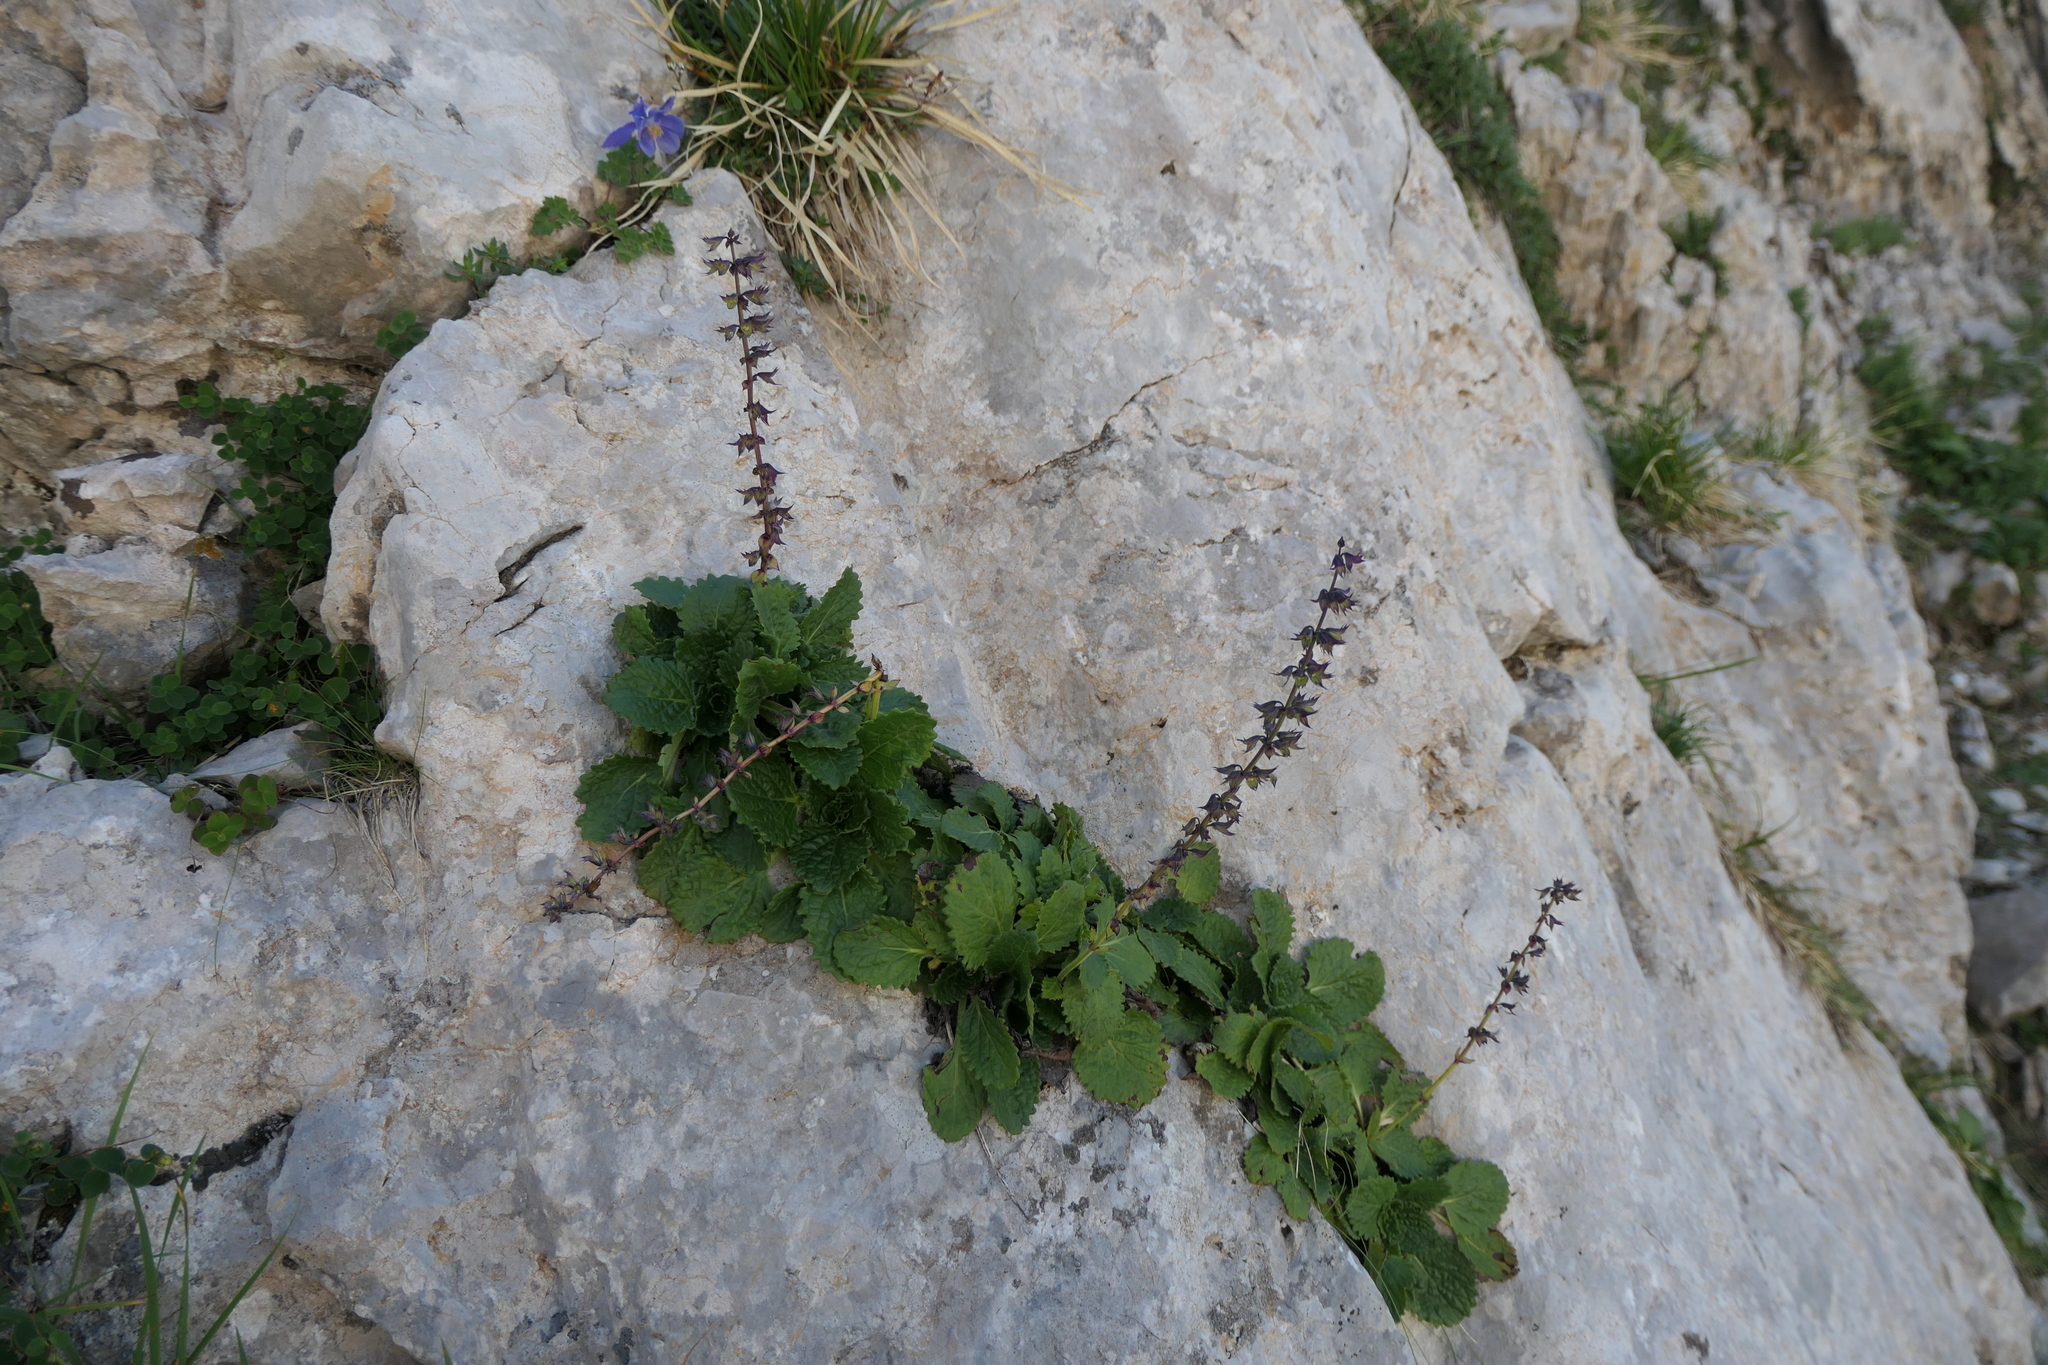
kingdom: Plantae
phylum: Tracheophyta
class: Magnoliopsida
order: Lamiales
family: Lamiaceae
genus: Horminum
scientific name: Horminum pyrenaicum
